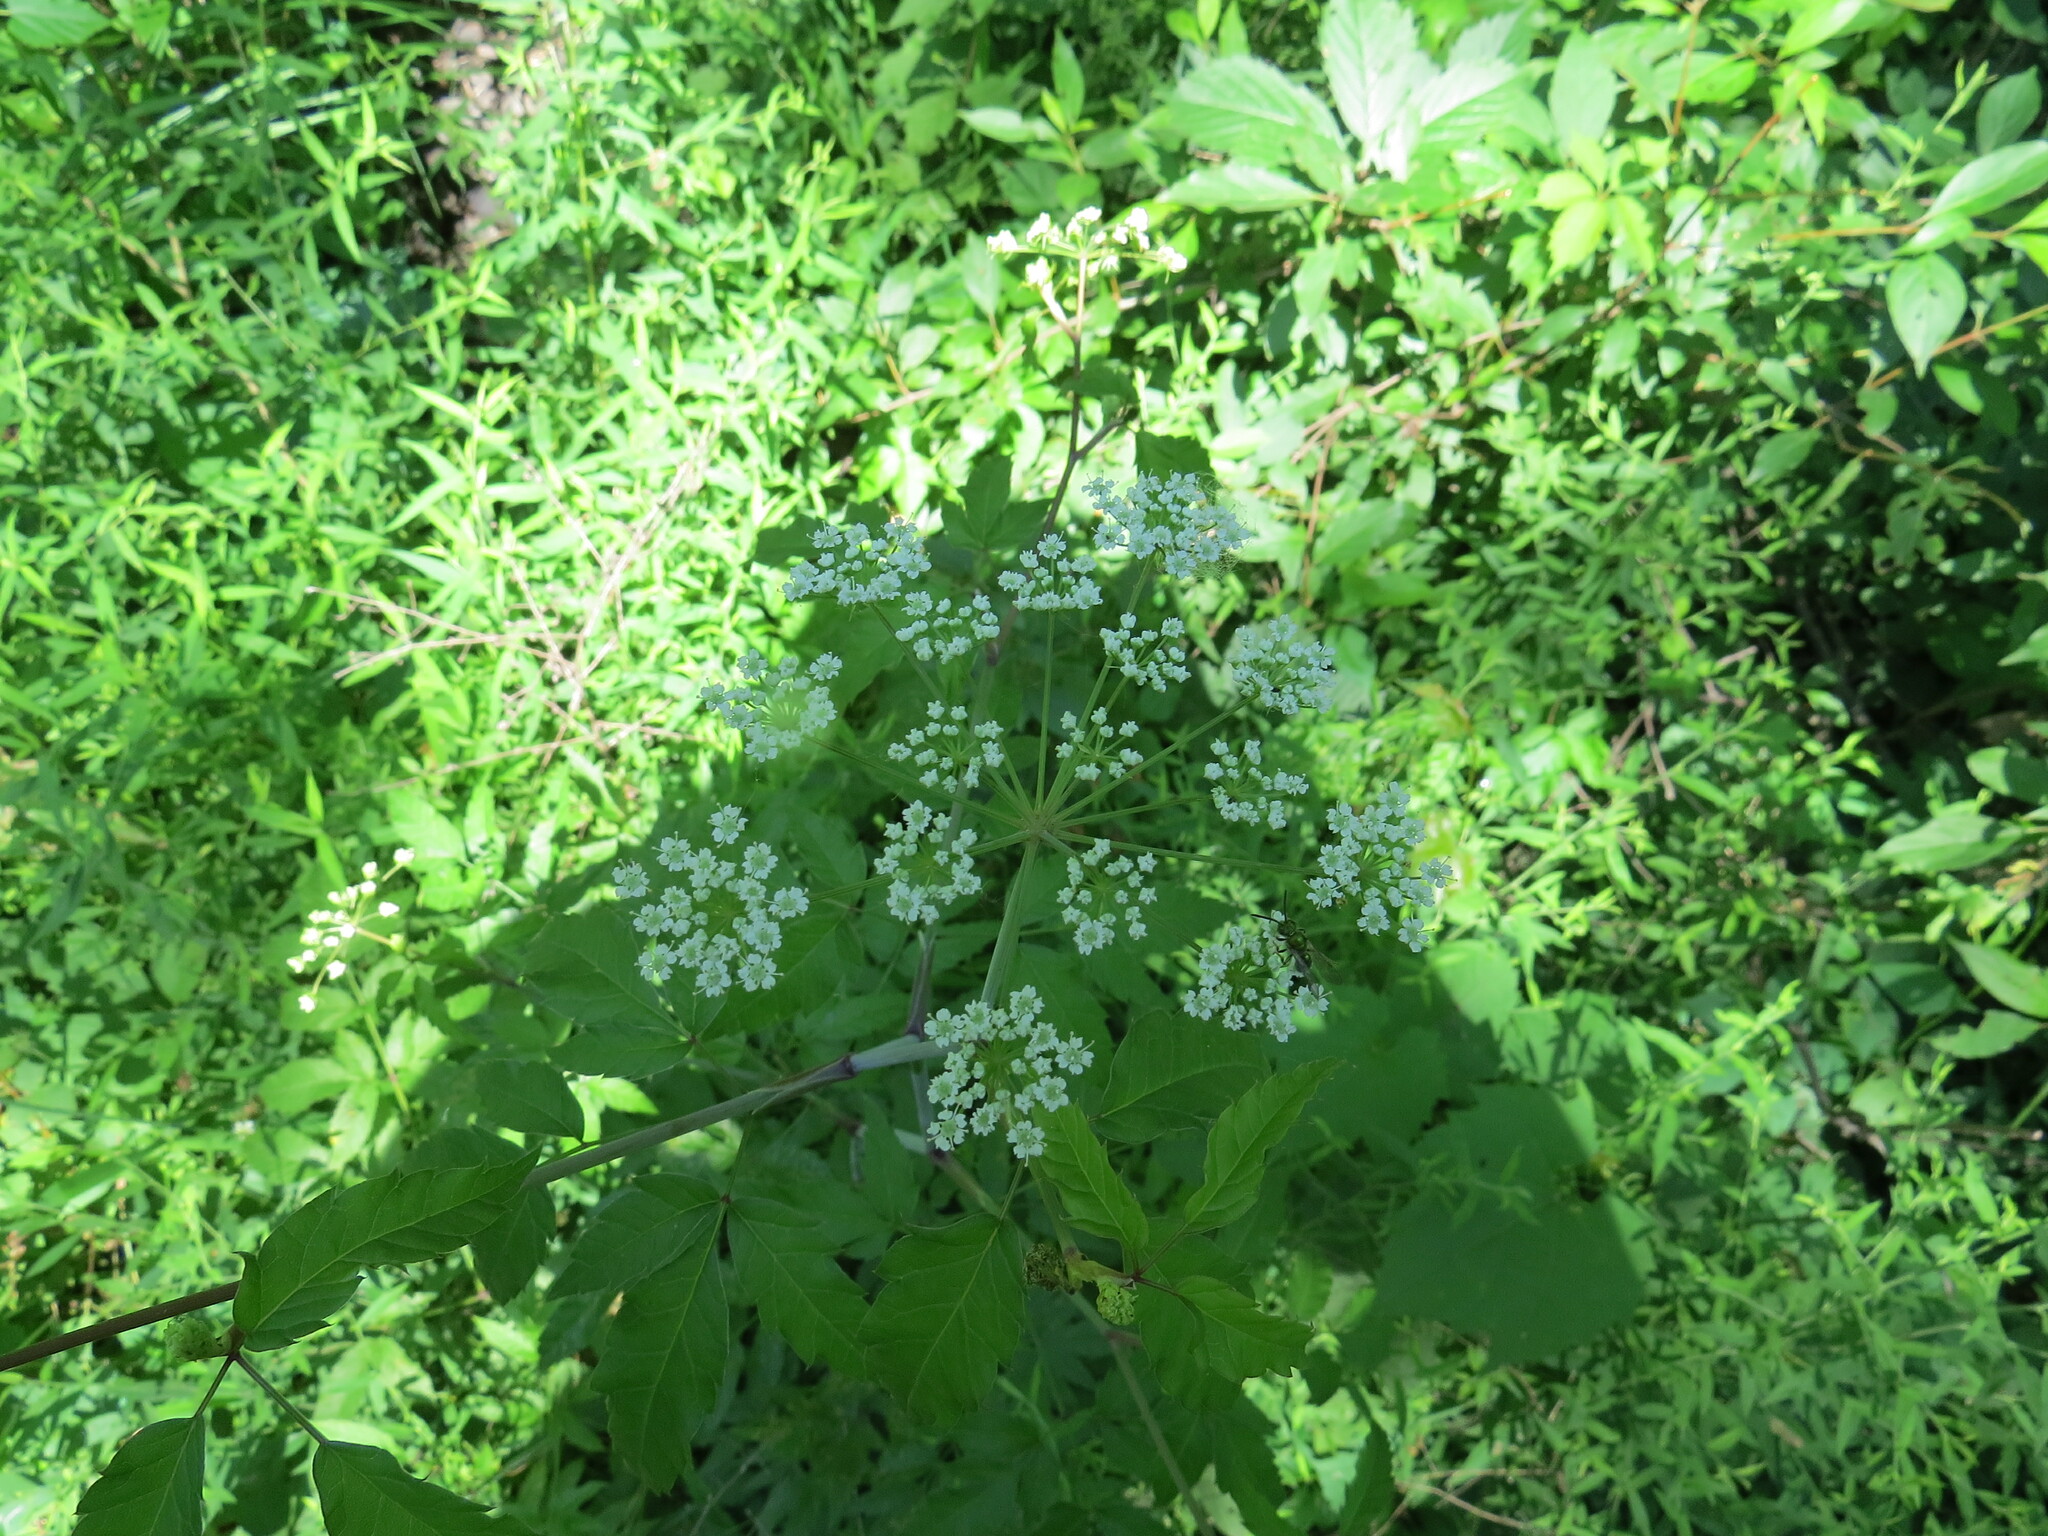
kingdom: Plantae
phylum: Tracheophyta
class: Magnoliopsida
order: Apiales
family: Apiaceae
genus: Cicuta
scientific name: Cicuta maculata
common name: Spotted cowbane
